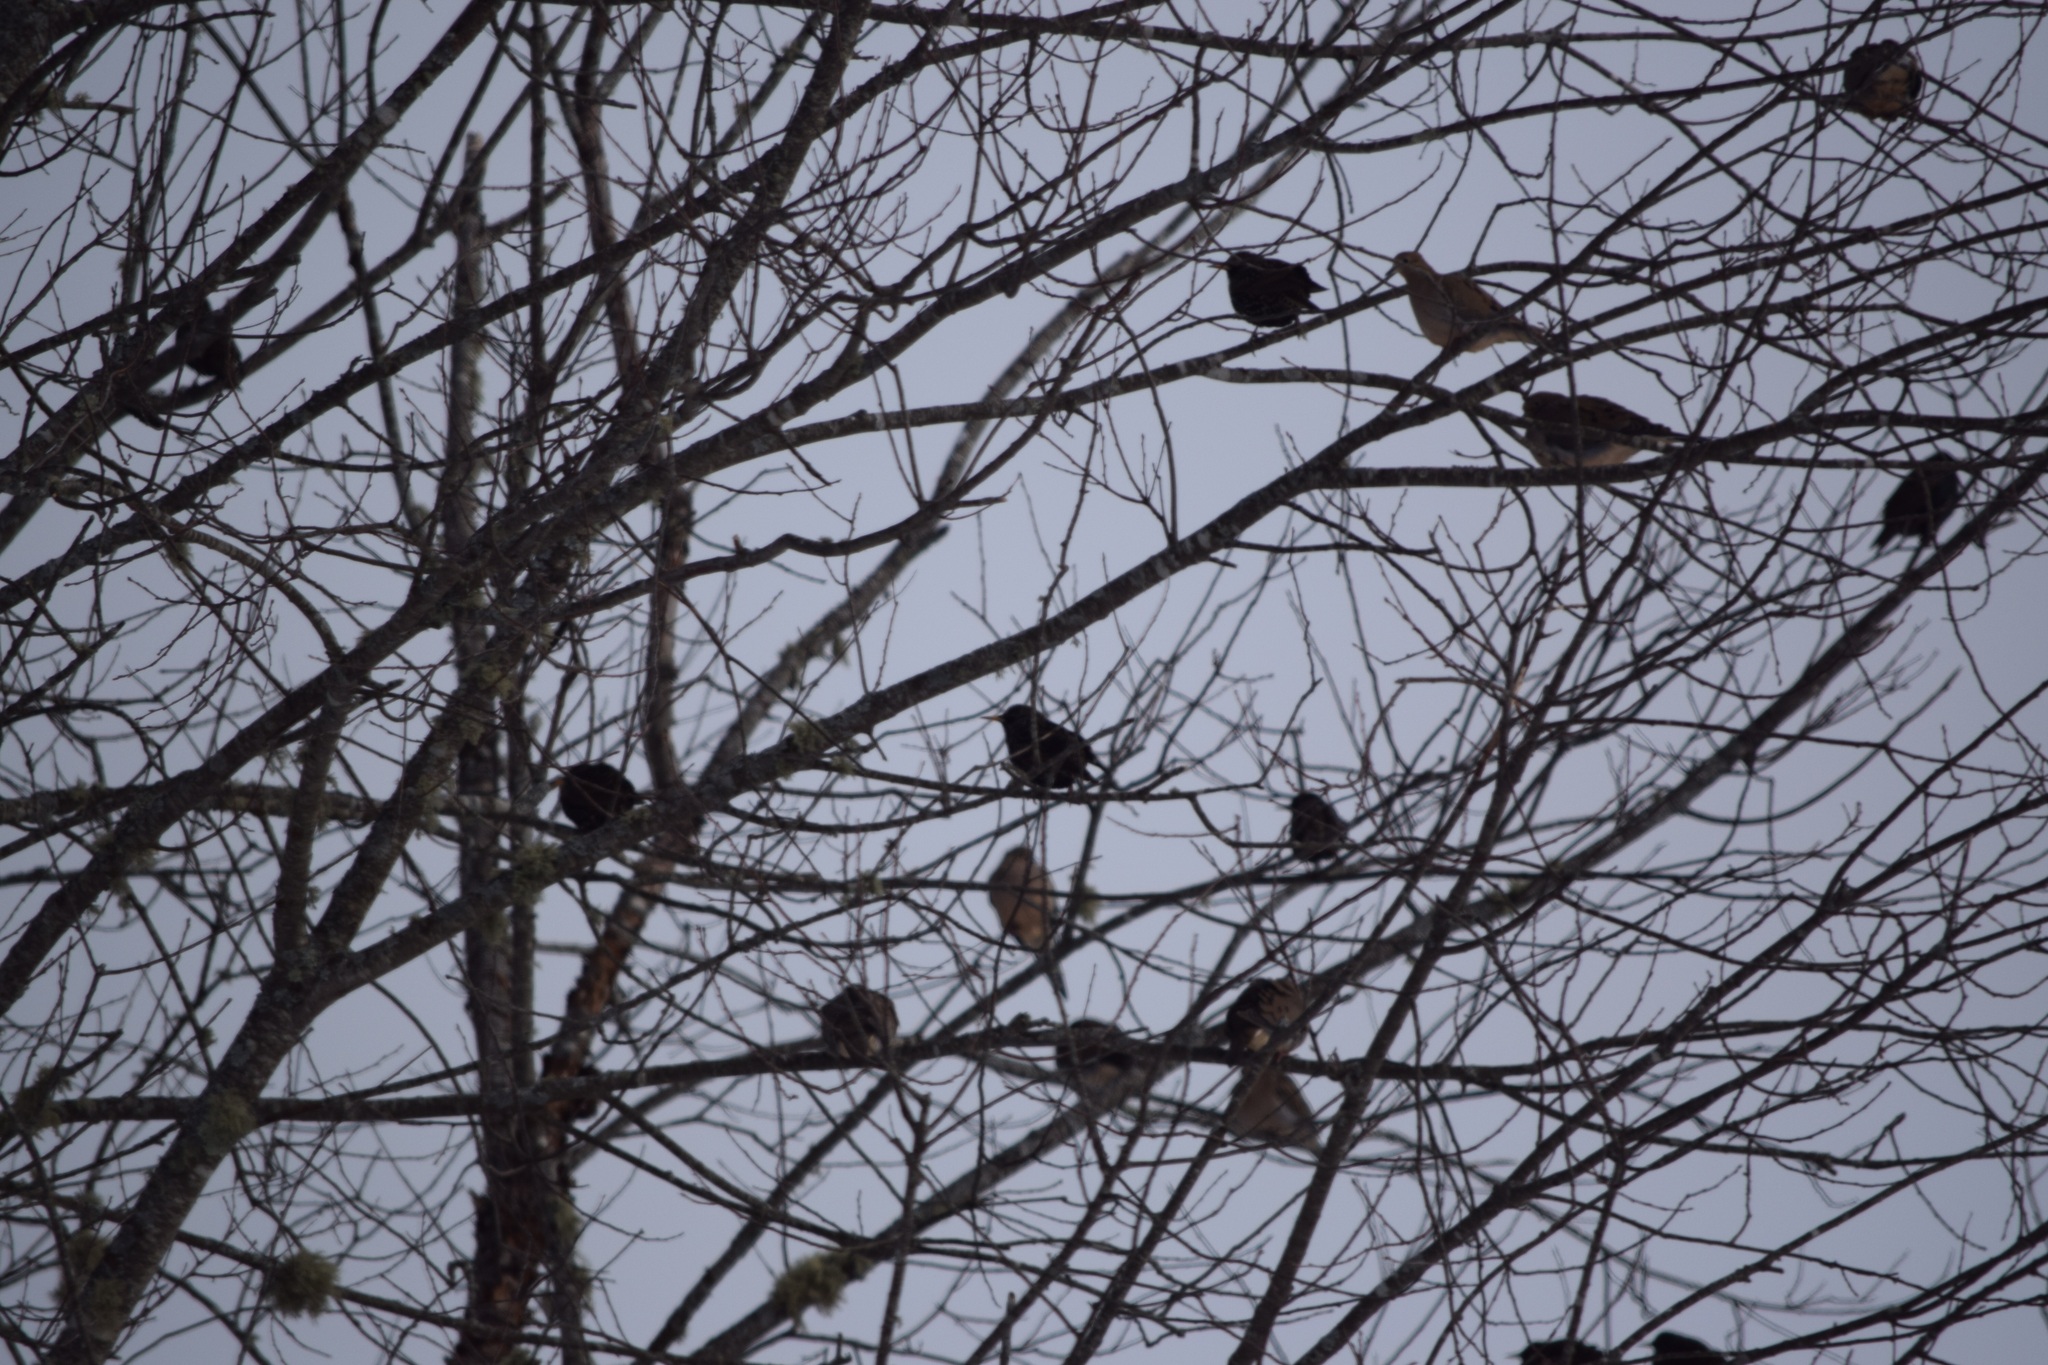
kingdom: Animalia
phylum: Chordata
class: Aves
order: Columbiformes
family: Columbidae
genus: Zenaida
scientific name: Zenaida macroura
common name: Mourning dove
